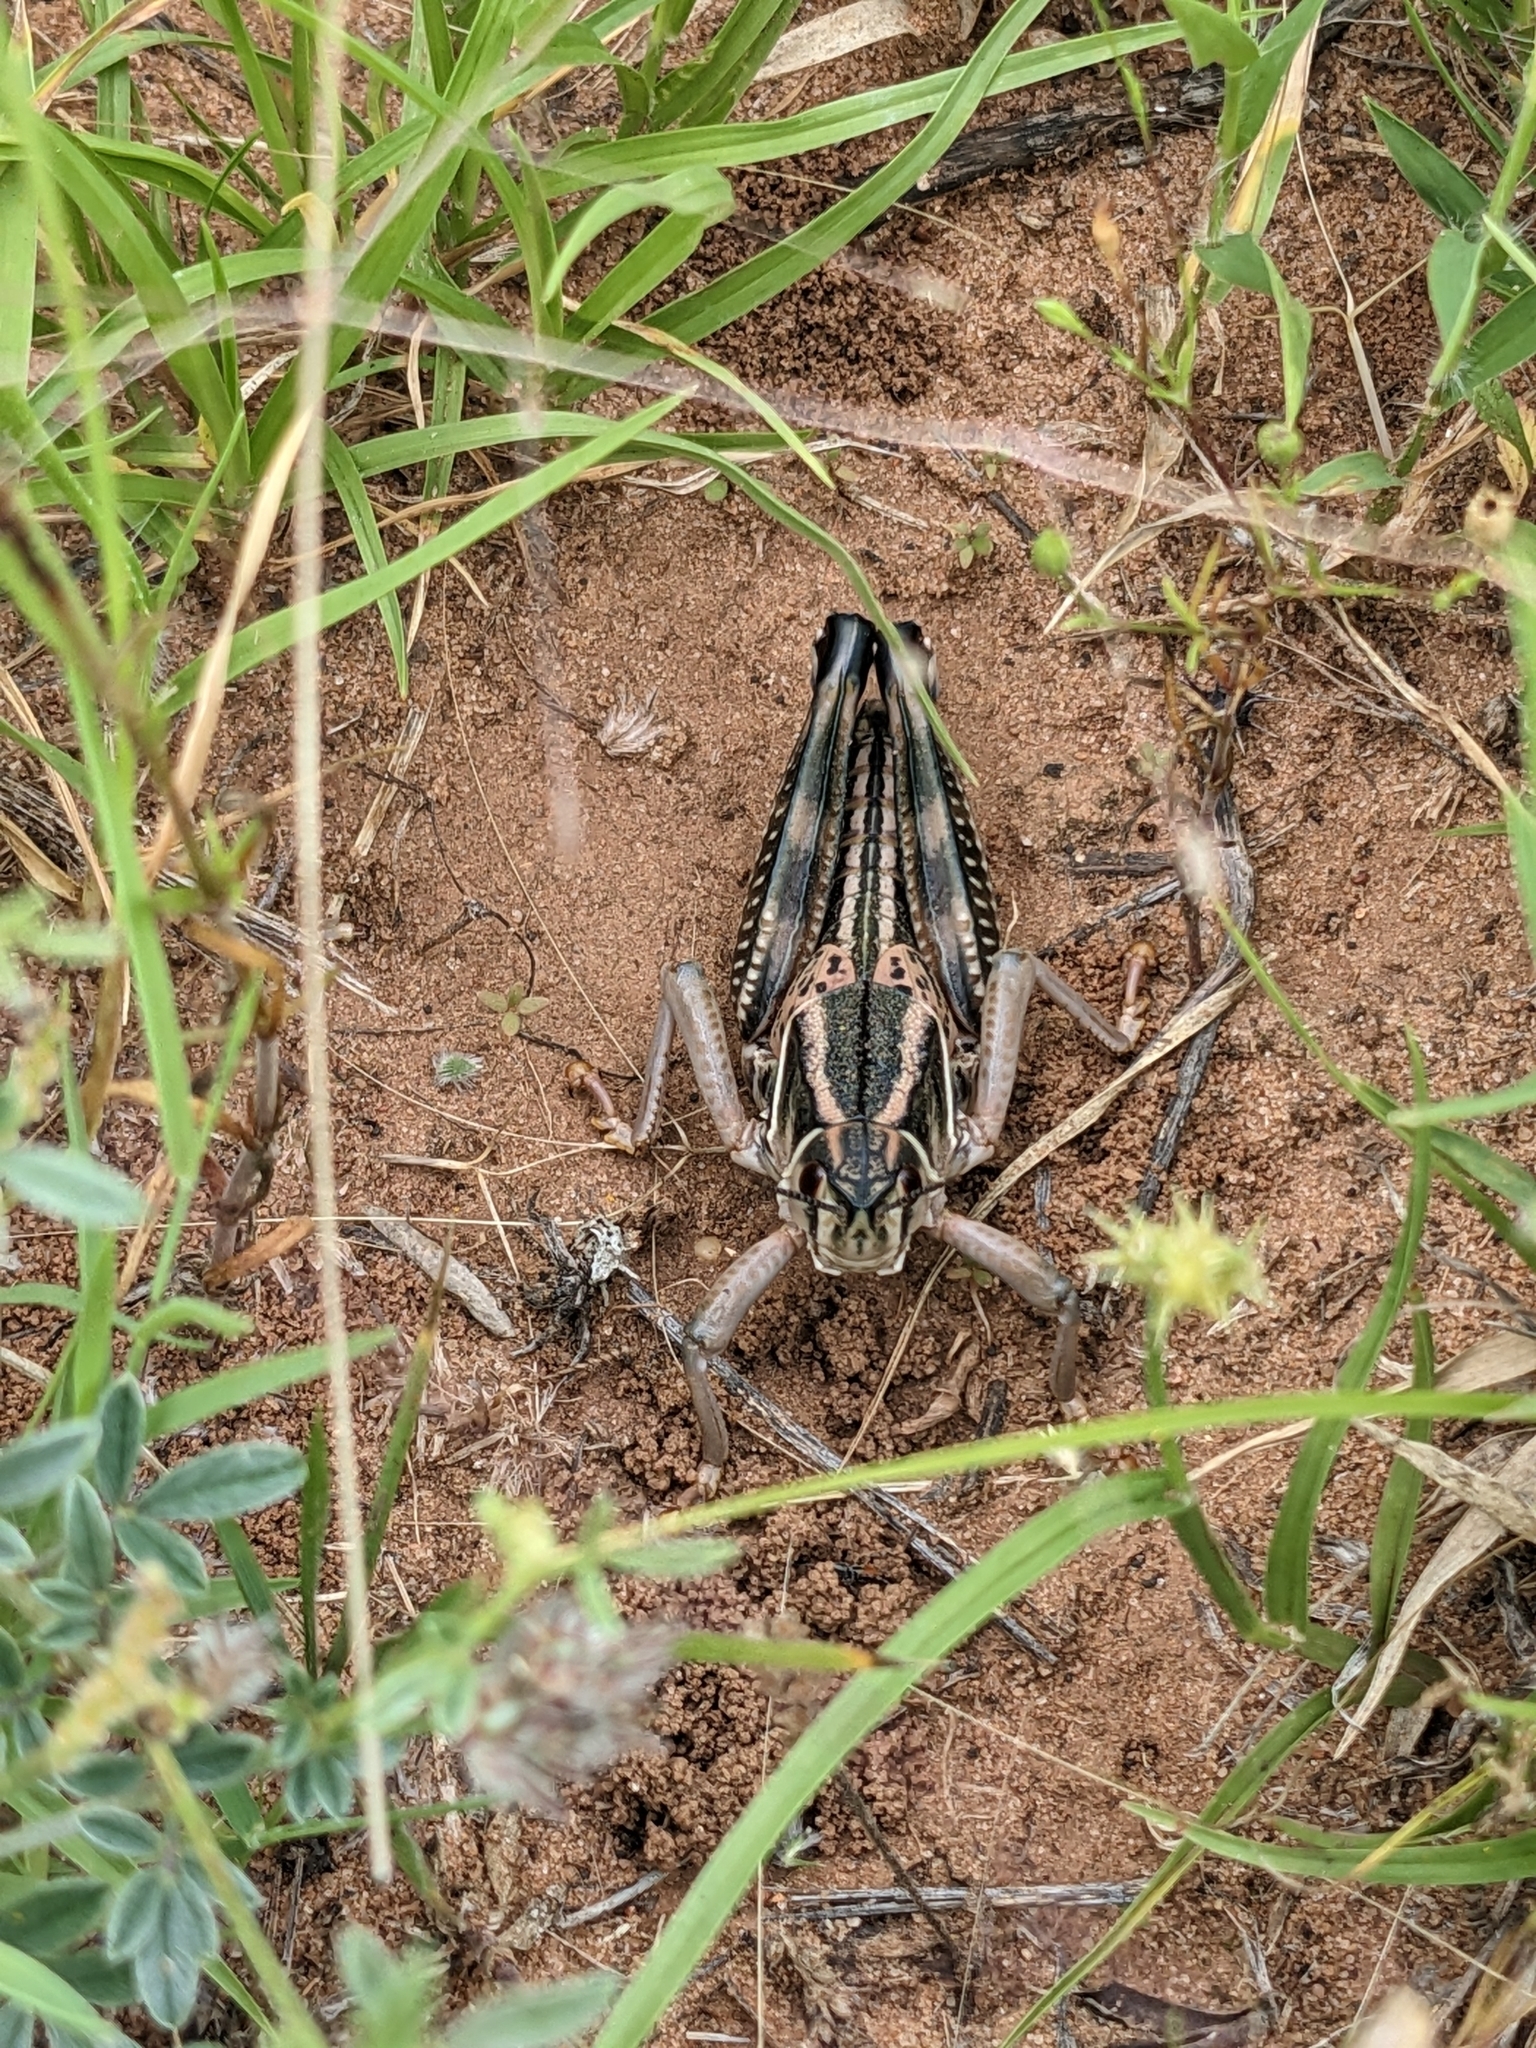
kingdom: Animalia
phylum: Arthropoda
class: Insecta
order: Orthoptera
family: Romaleidae
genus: Brachystola
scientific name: Brachystola magna
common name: Plains lubber grasshopper
